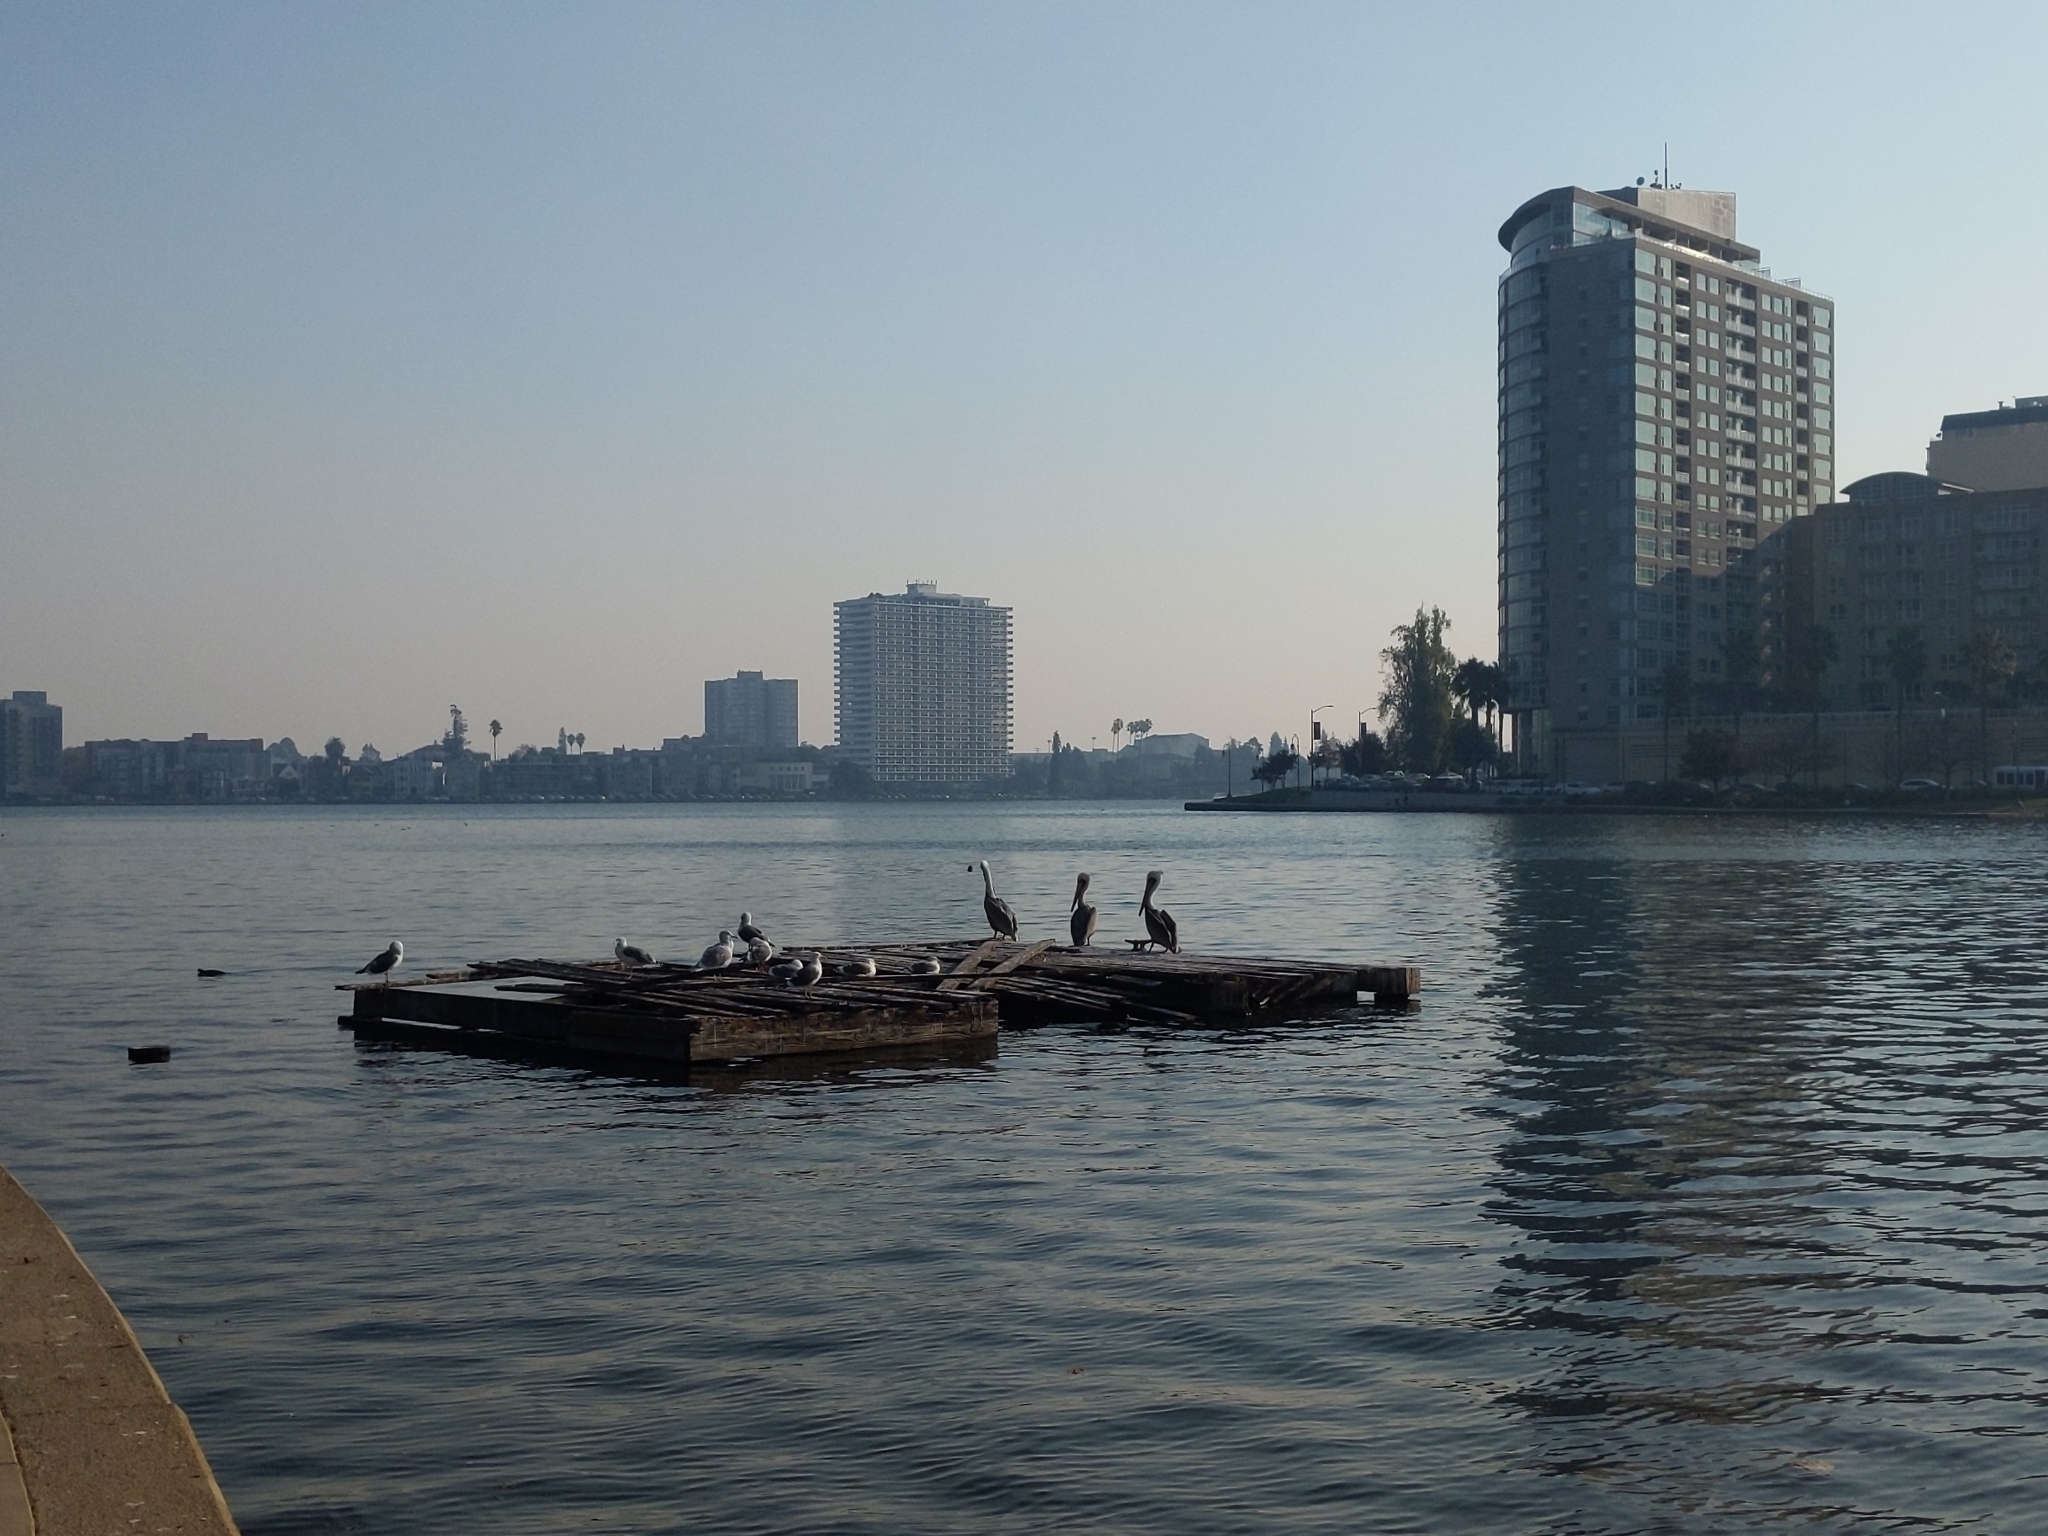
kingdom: Animalia
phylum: Chordata
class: Aves
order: Pelecaniformes
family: Pelecanidae
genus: Pelecanus
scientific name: Pelecanus occidentalis
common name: Brown pelican
